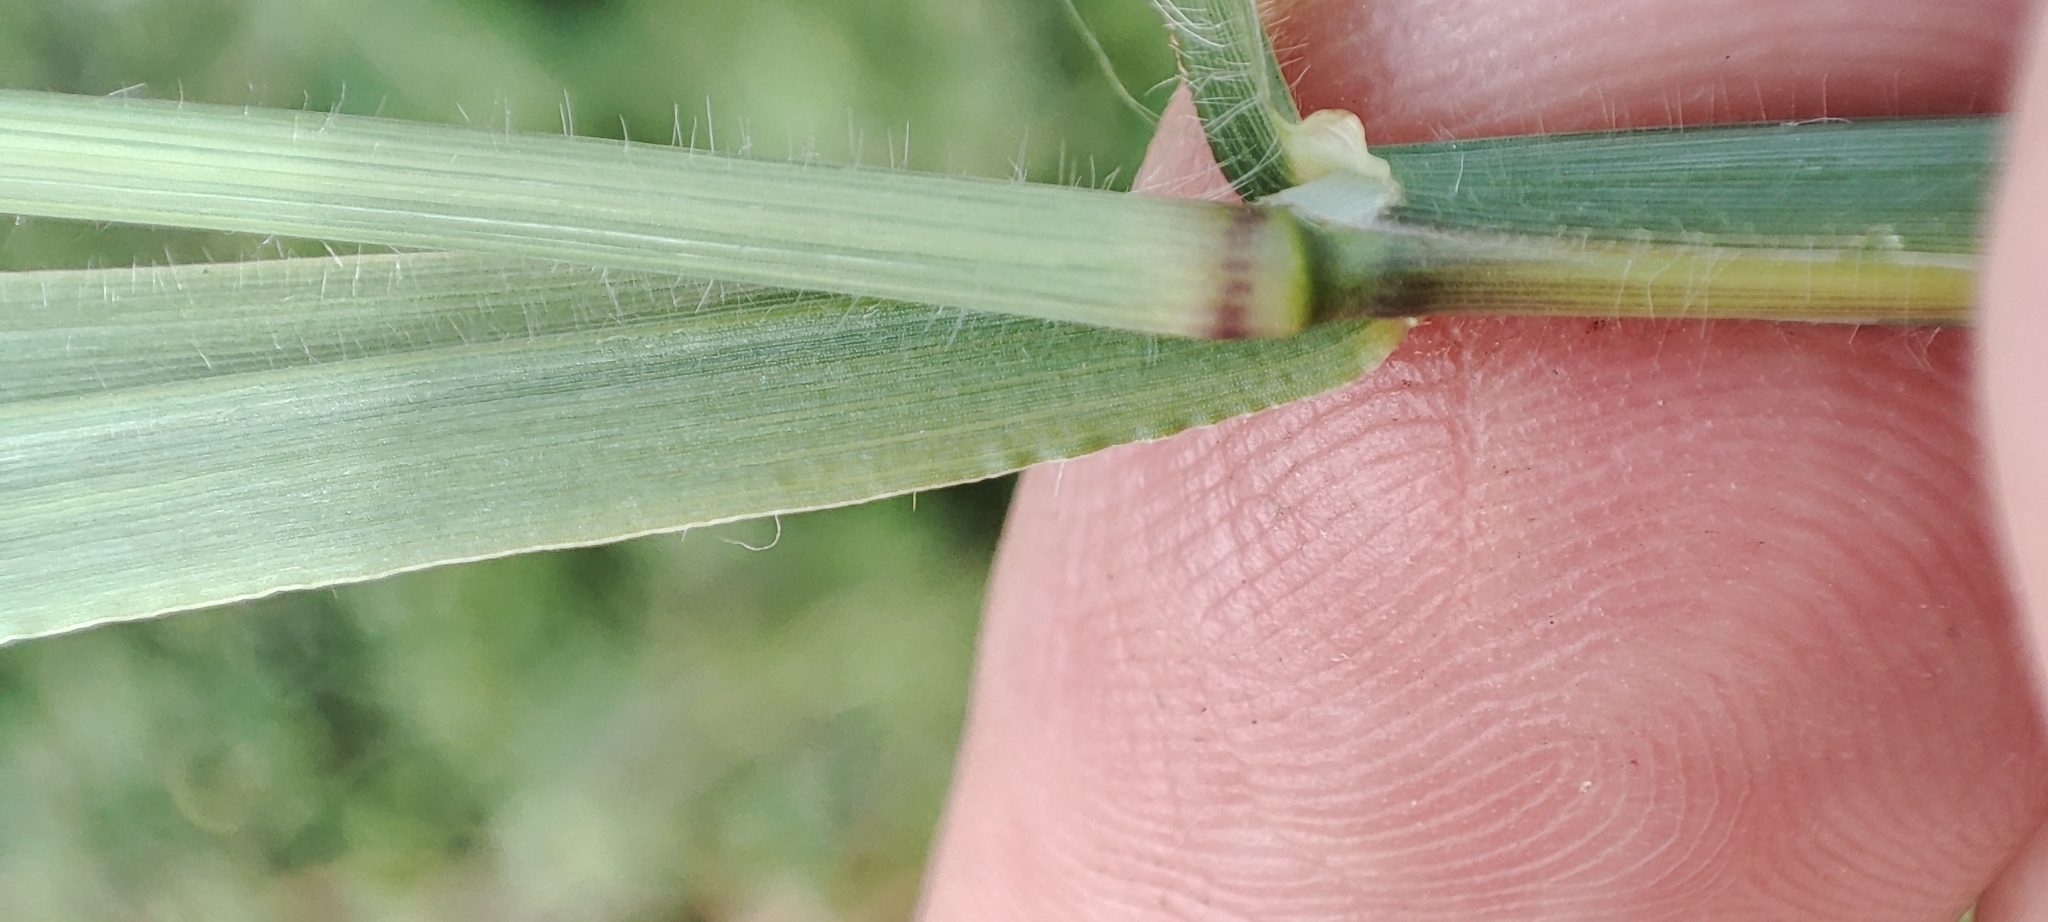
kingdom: Plantae
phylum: Tracheophyta
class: Liliopsida
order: Poales
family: Poaceae
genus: Anthephora
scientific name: Anthephora hermaphrodita
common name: Oldfield grass
